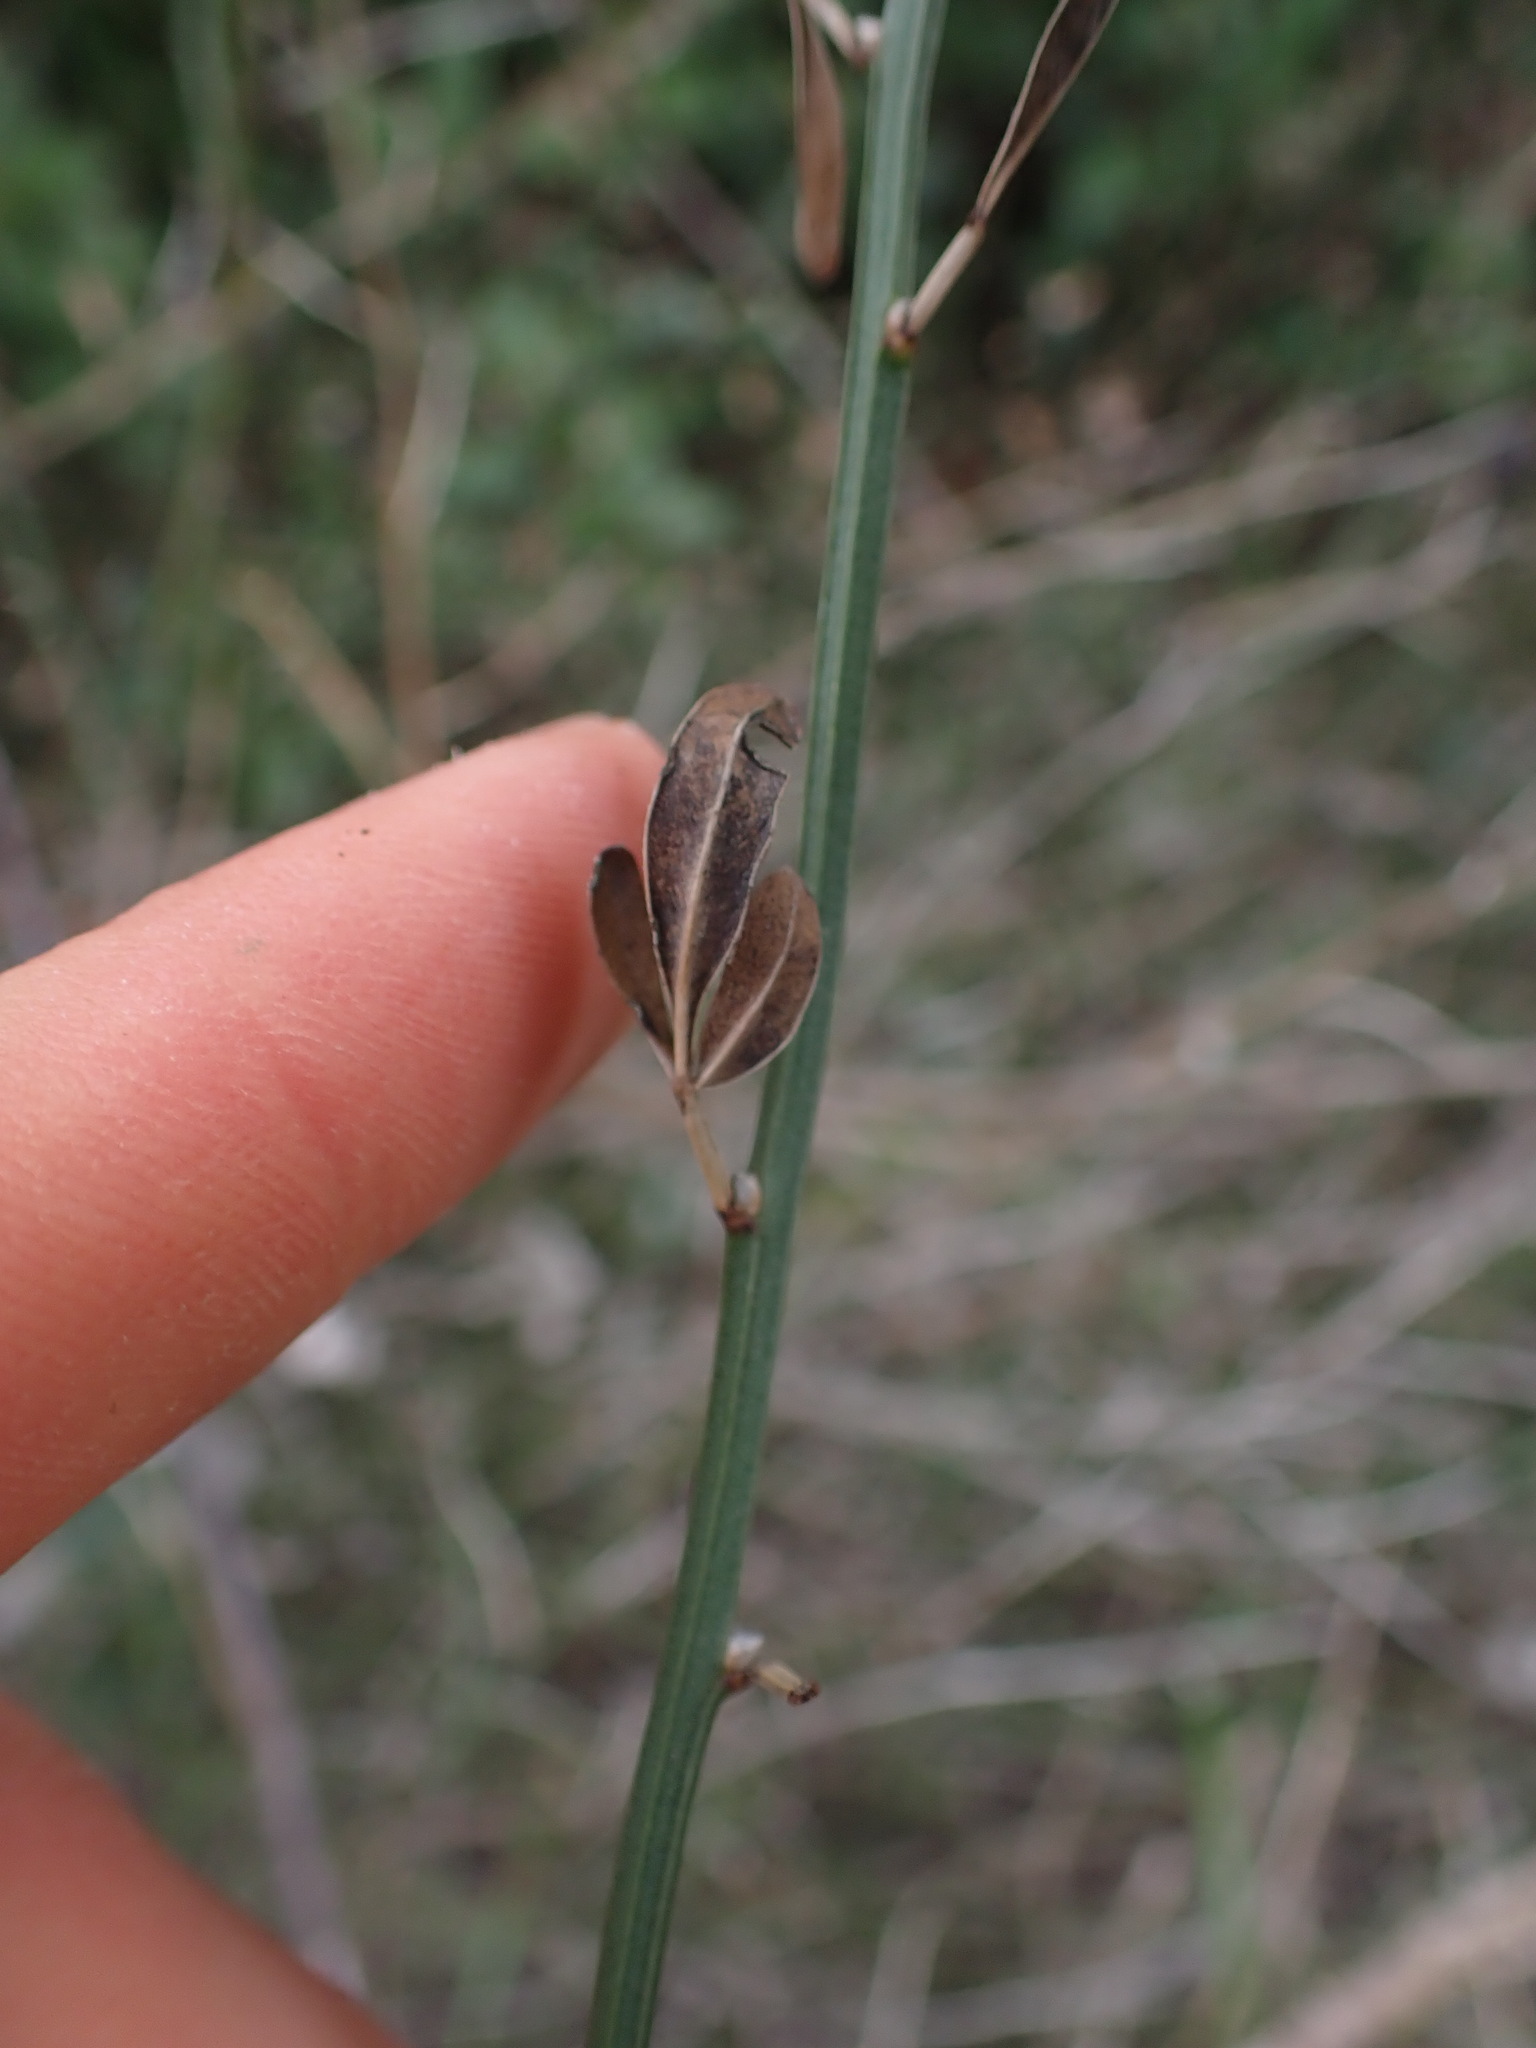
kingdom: Plantae
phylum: Tracheophyta
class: Magnoliopsida
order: Lamiales
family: Oleaceae
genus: Chrysojasminum
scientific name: Chrysojasminum fruticans
